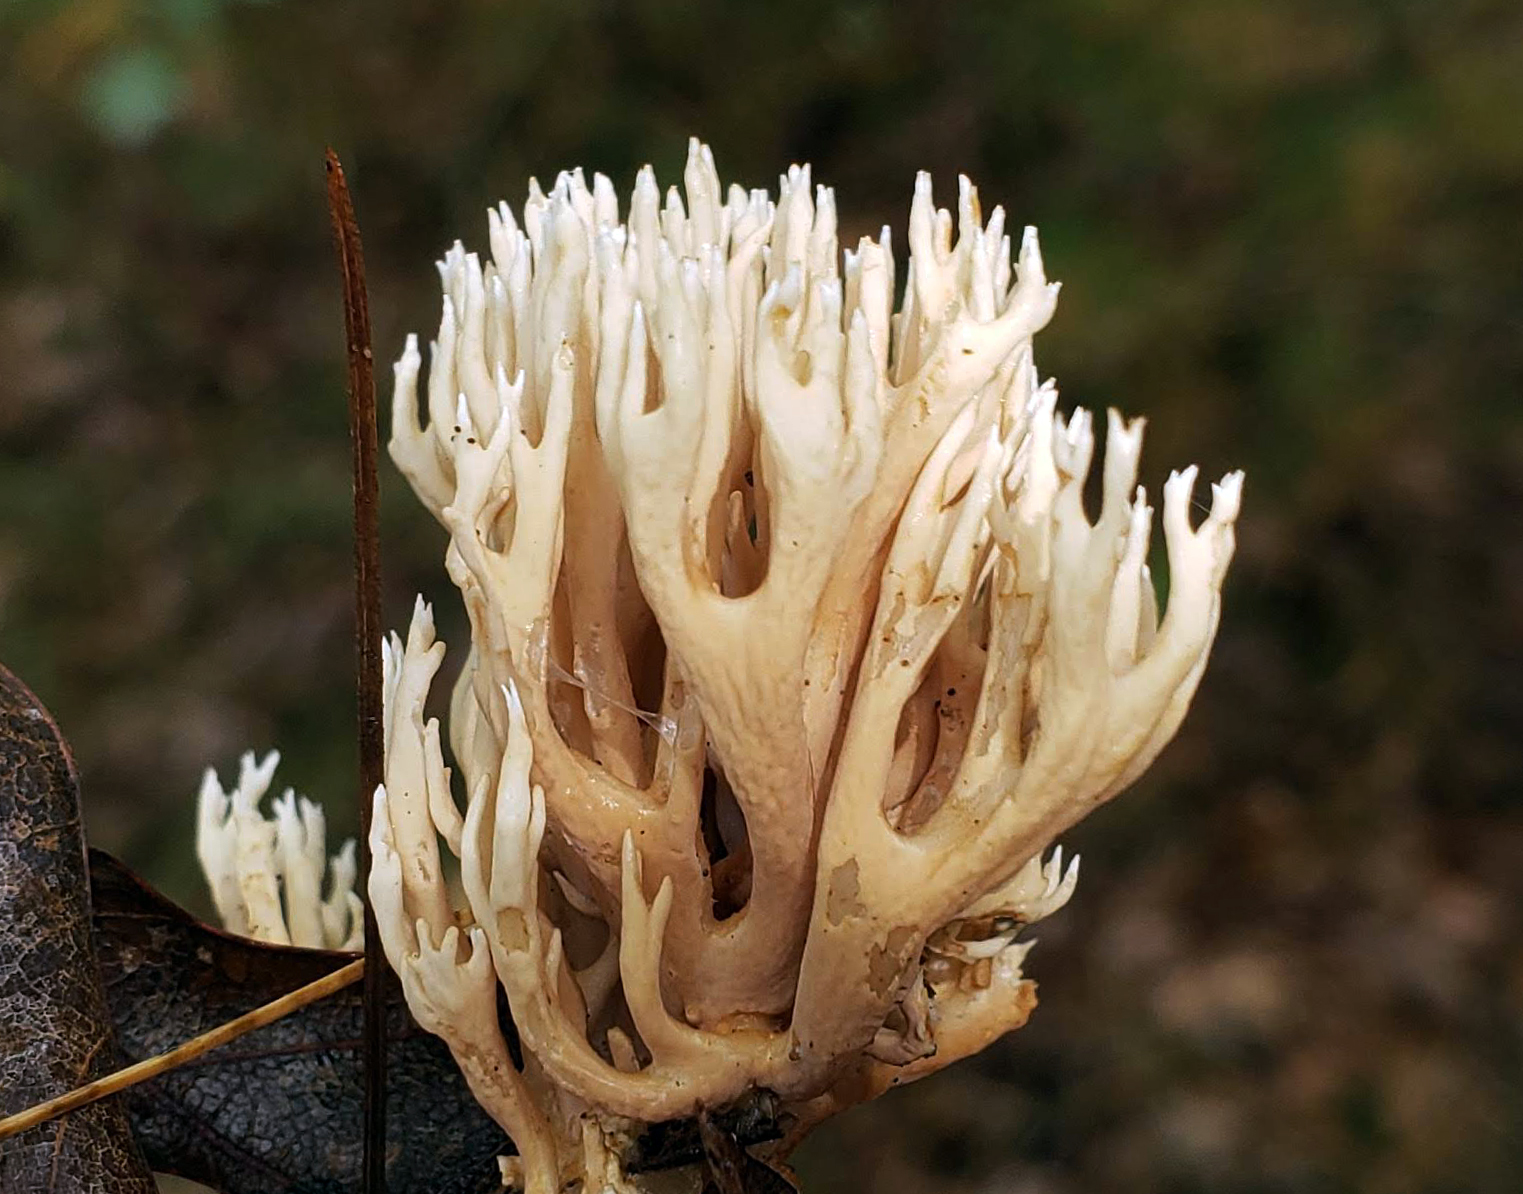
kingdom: Fungi
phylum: Basidiomycota
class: Agaricomycetes
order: Gomphales
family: Gomphaceae
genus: Ramaria
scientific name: Ramaria stricta
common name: Upright coral
